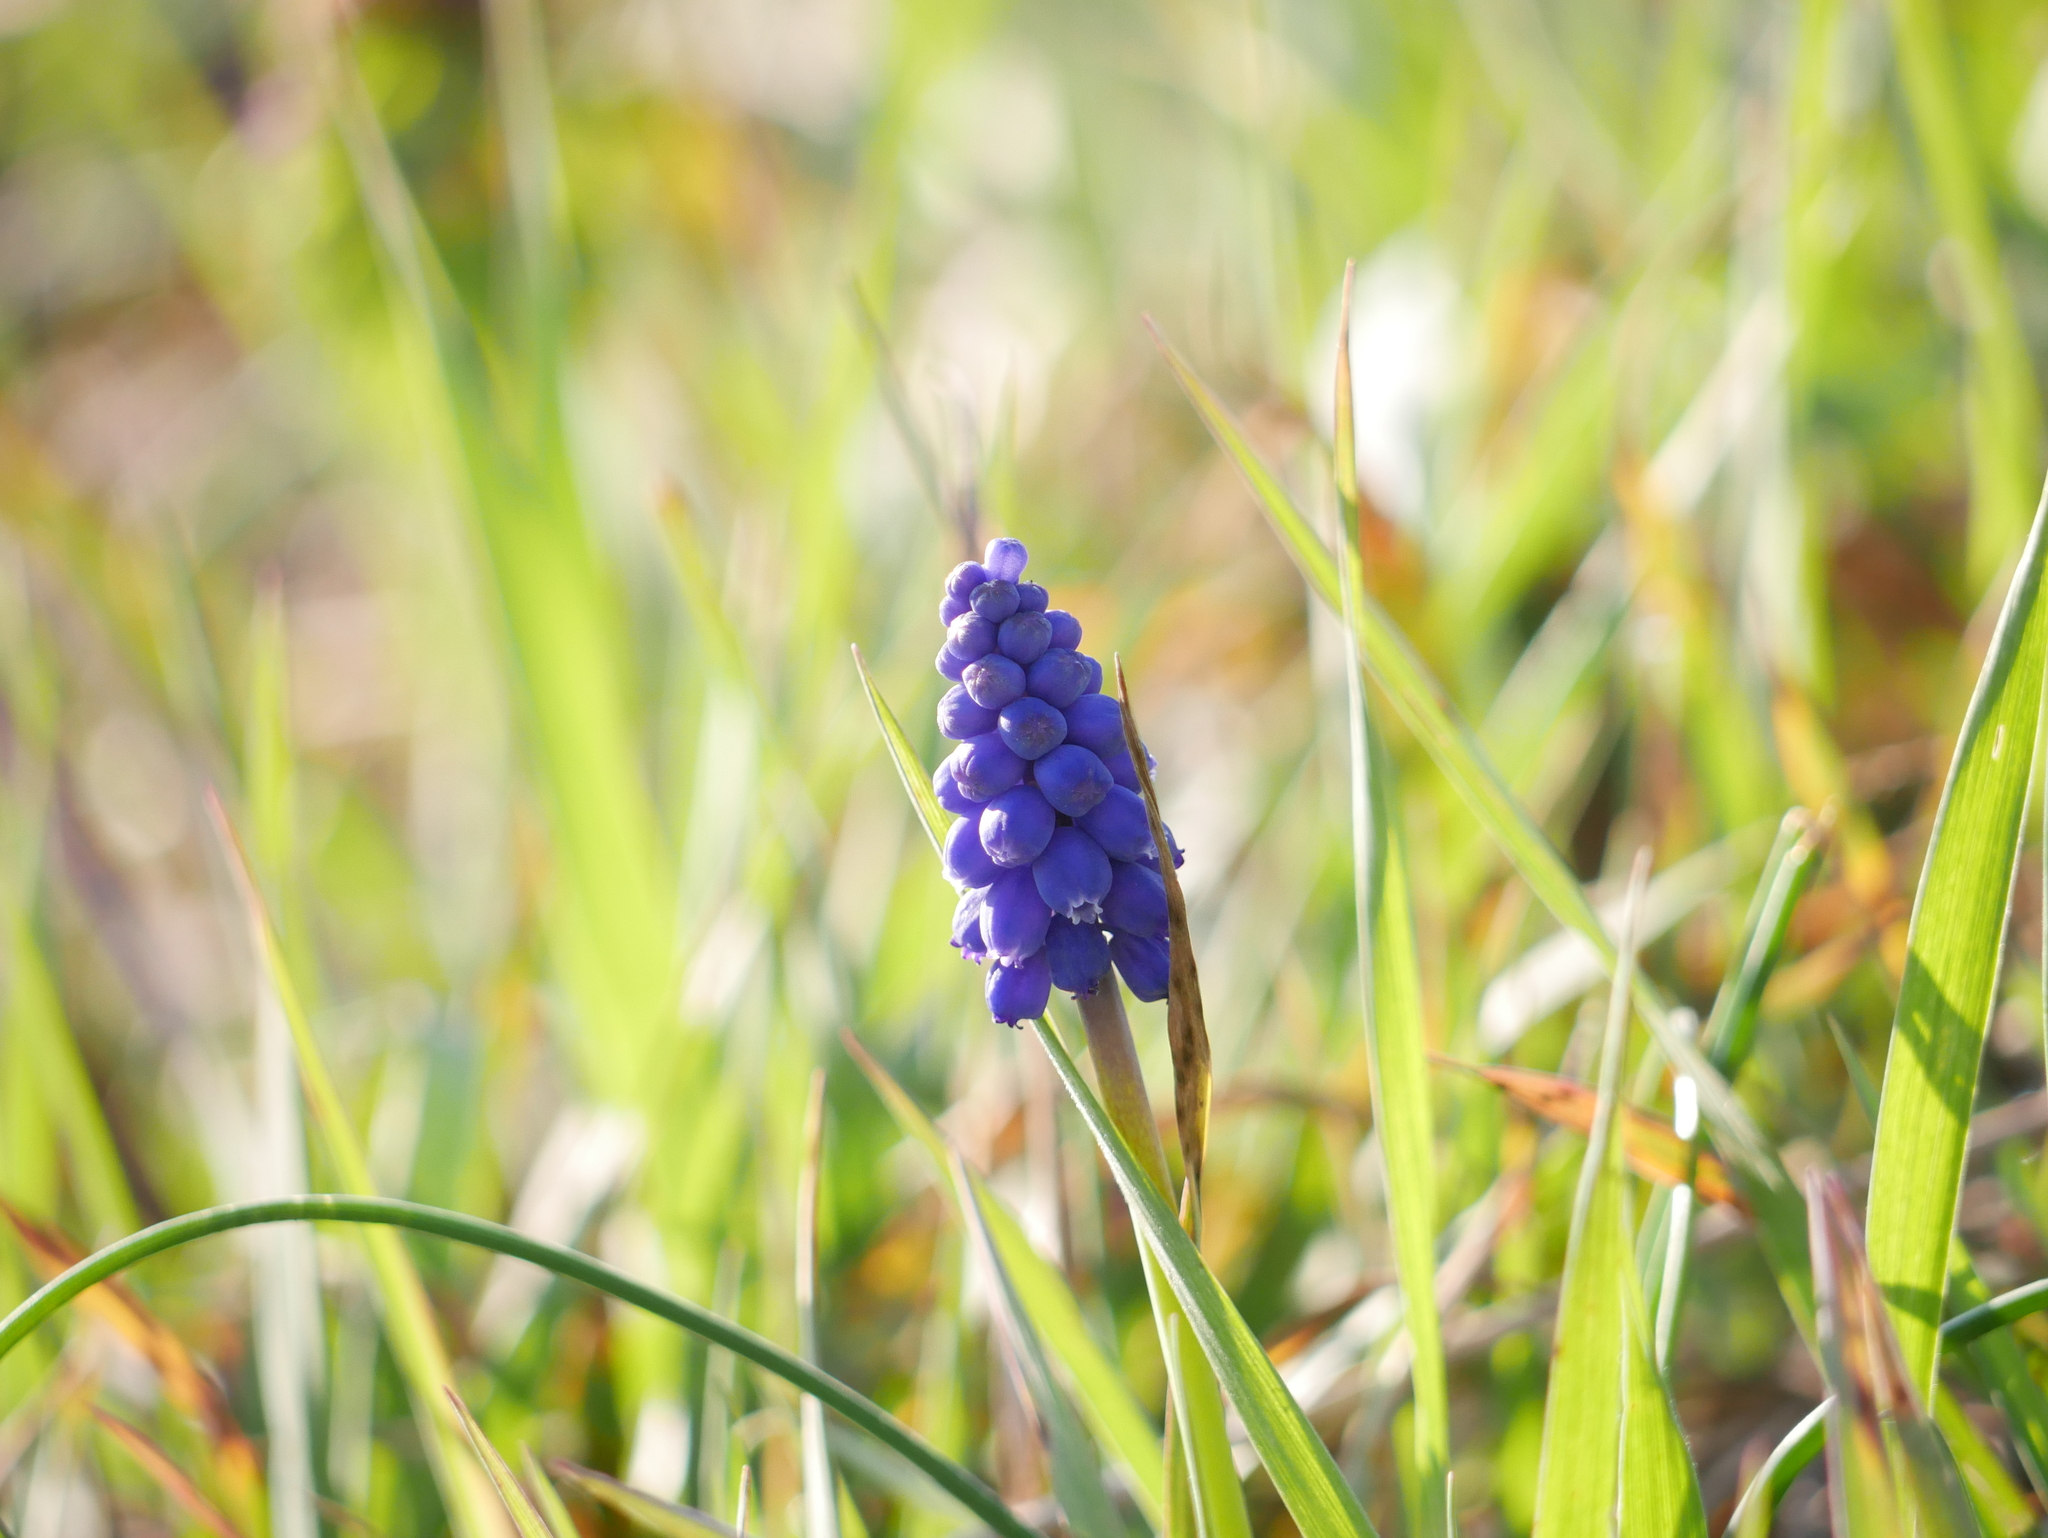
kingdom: Plantae
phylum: Tracheophyta
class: Liliopsida
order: Asparagales
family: Asparagaceae
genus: Muscari
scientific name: Muscari botryoides
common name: Compact grape-hyacinth
